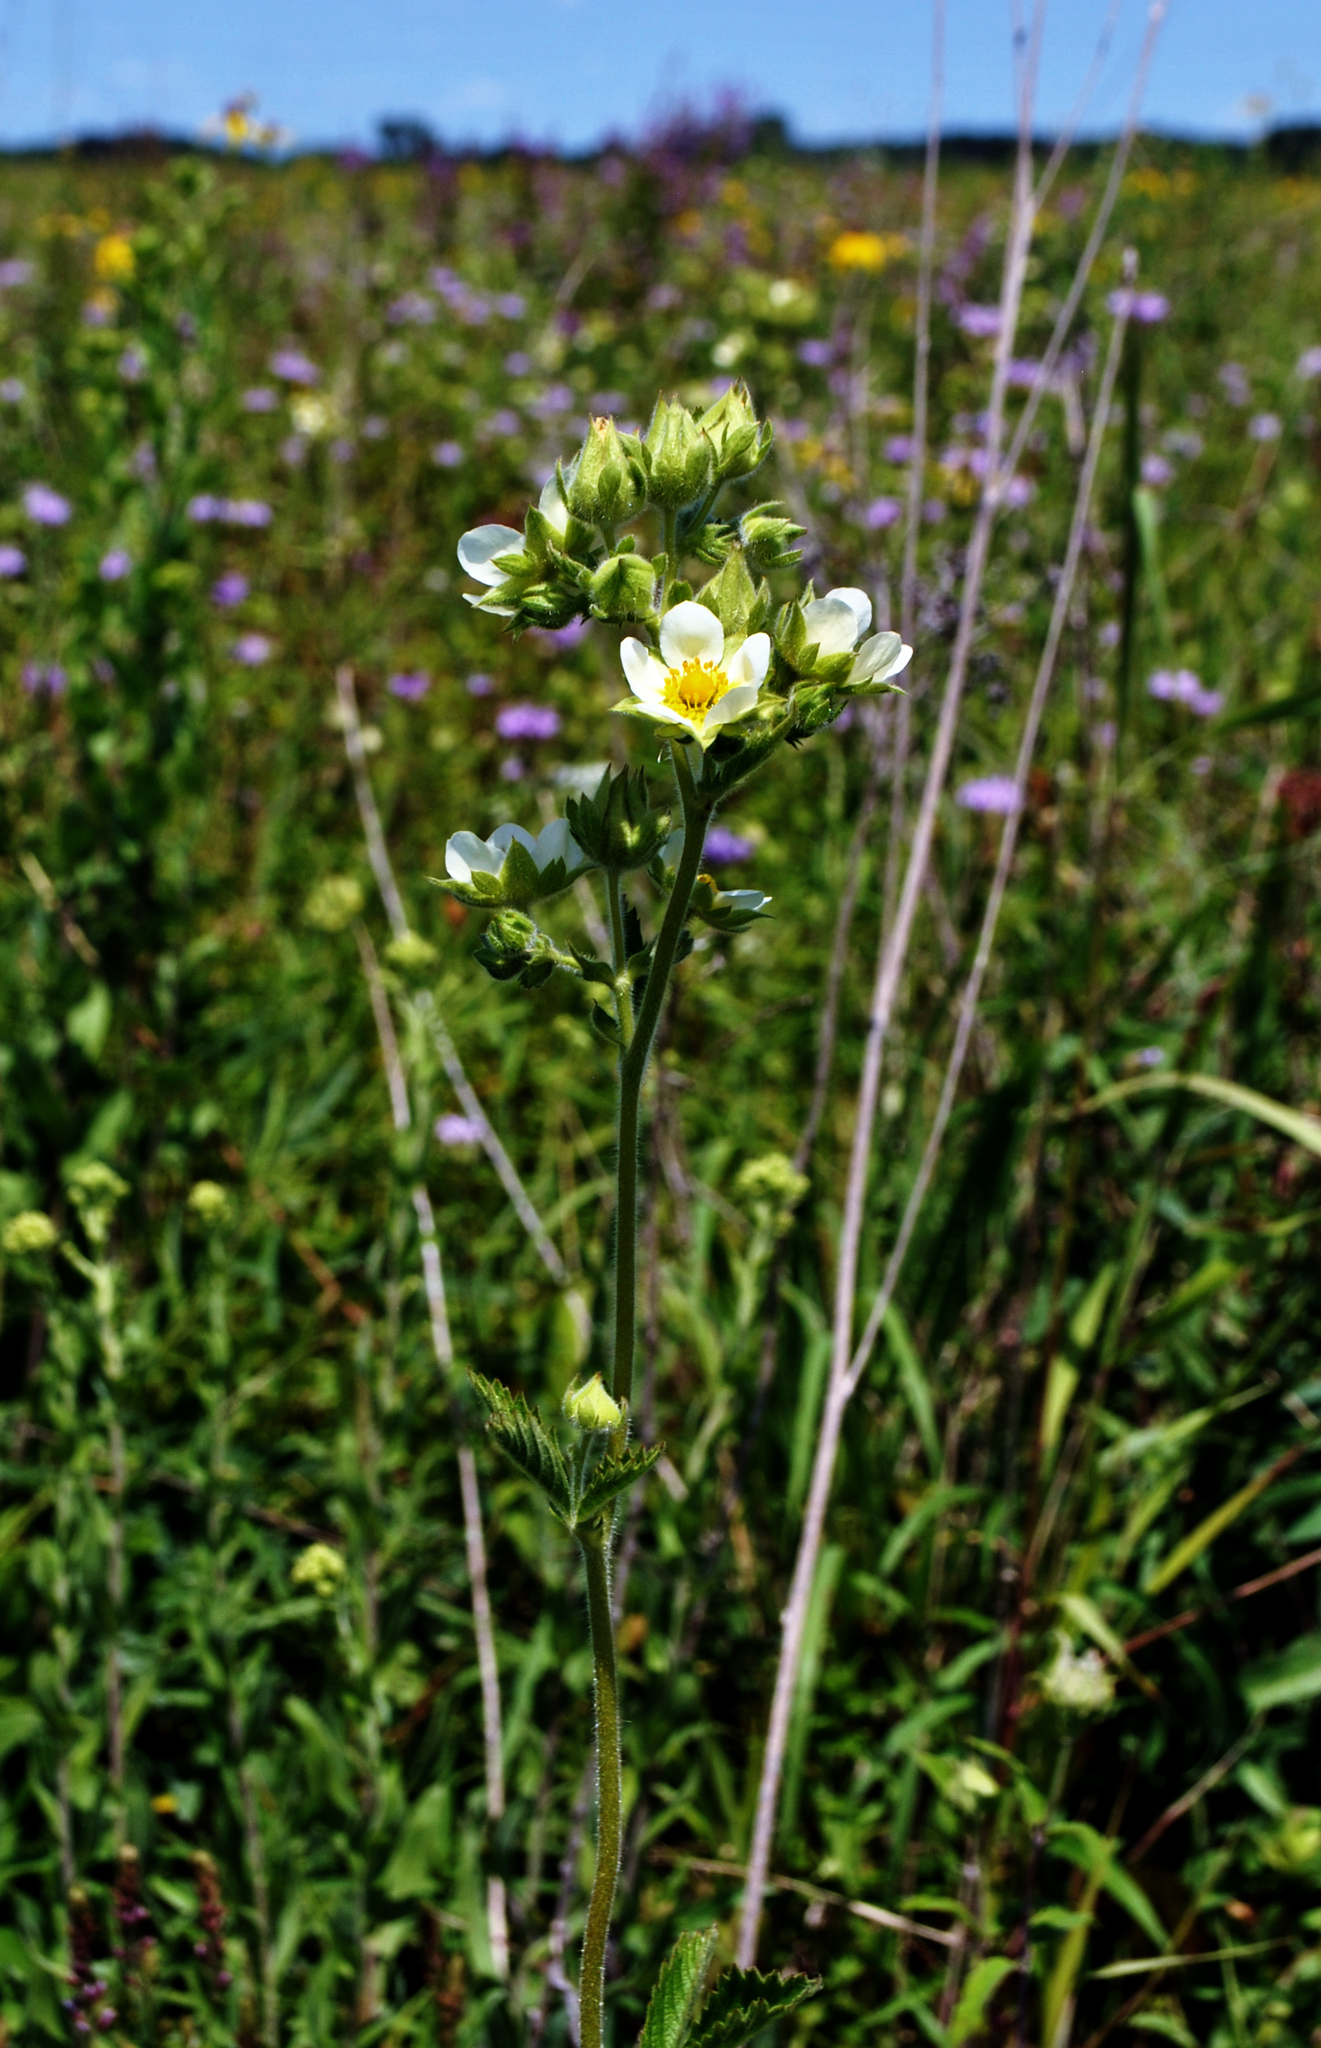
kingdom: Plantae
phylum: Tracheophyta
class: Magnoliopsida
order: Rosales
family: Rosaceae
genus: Drymocallis
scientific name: Drymocallis arguta
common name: Tall cinquefoil
